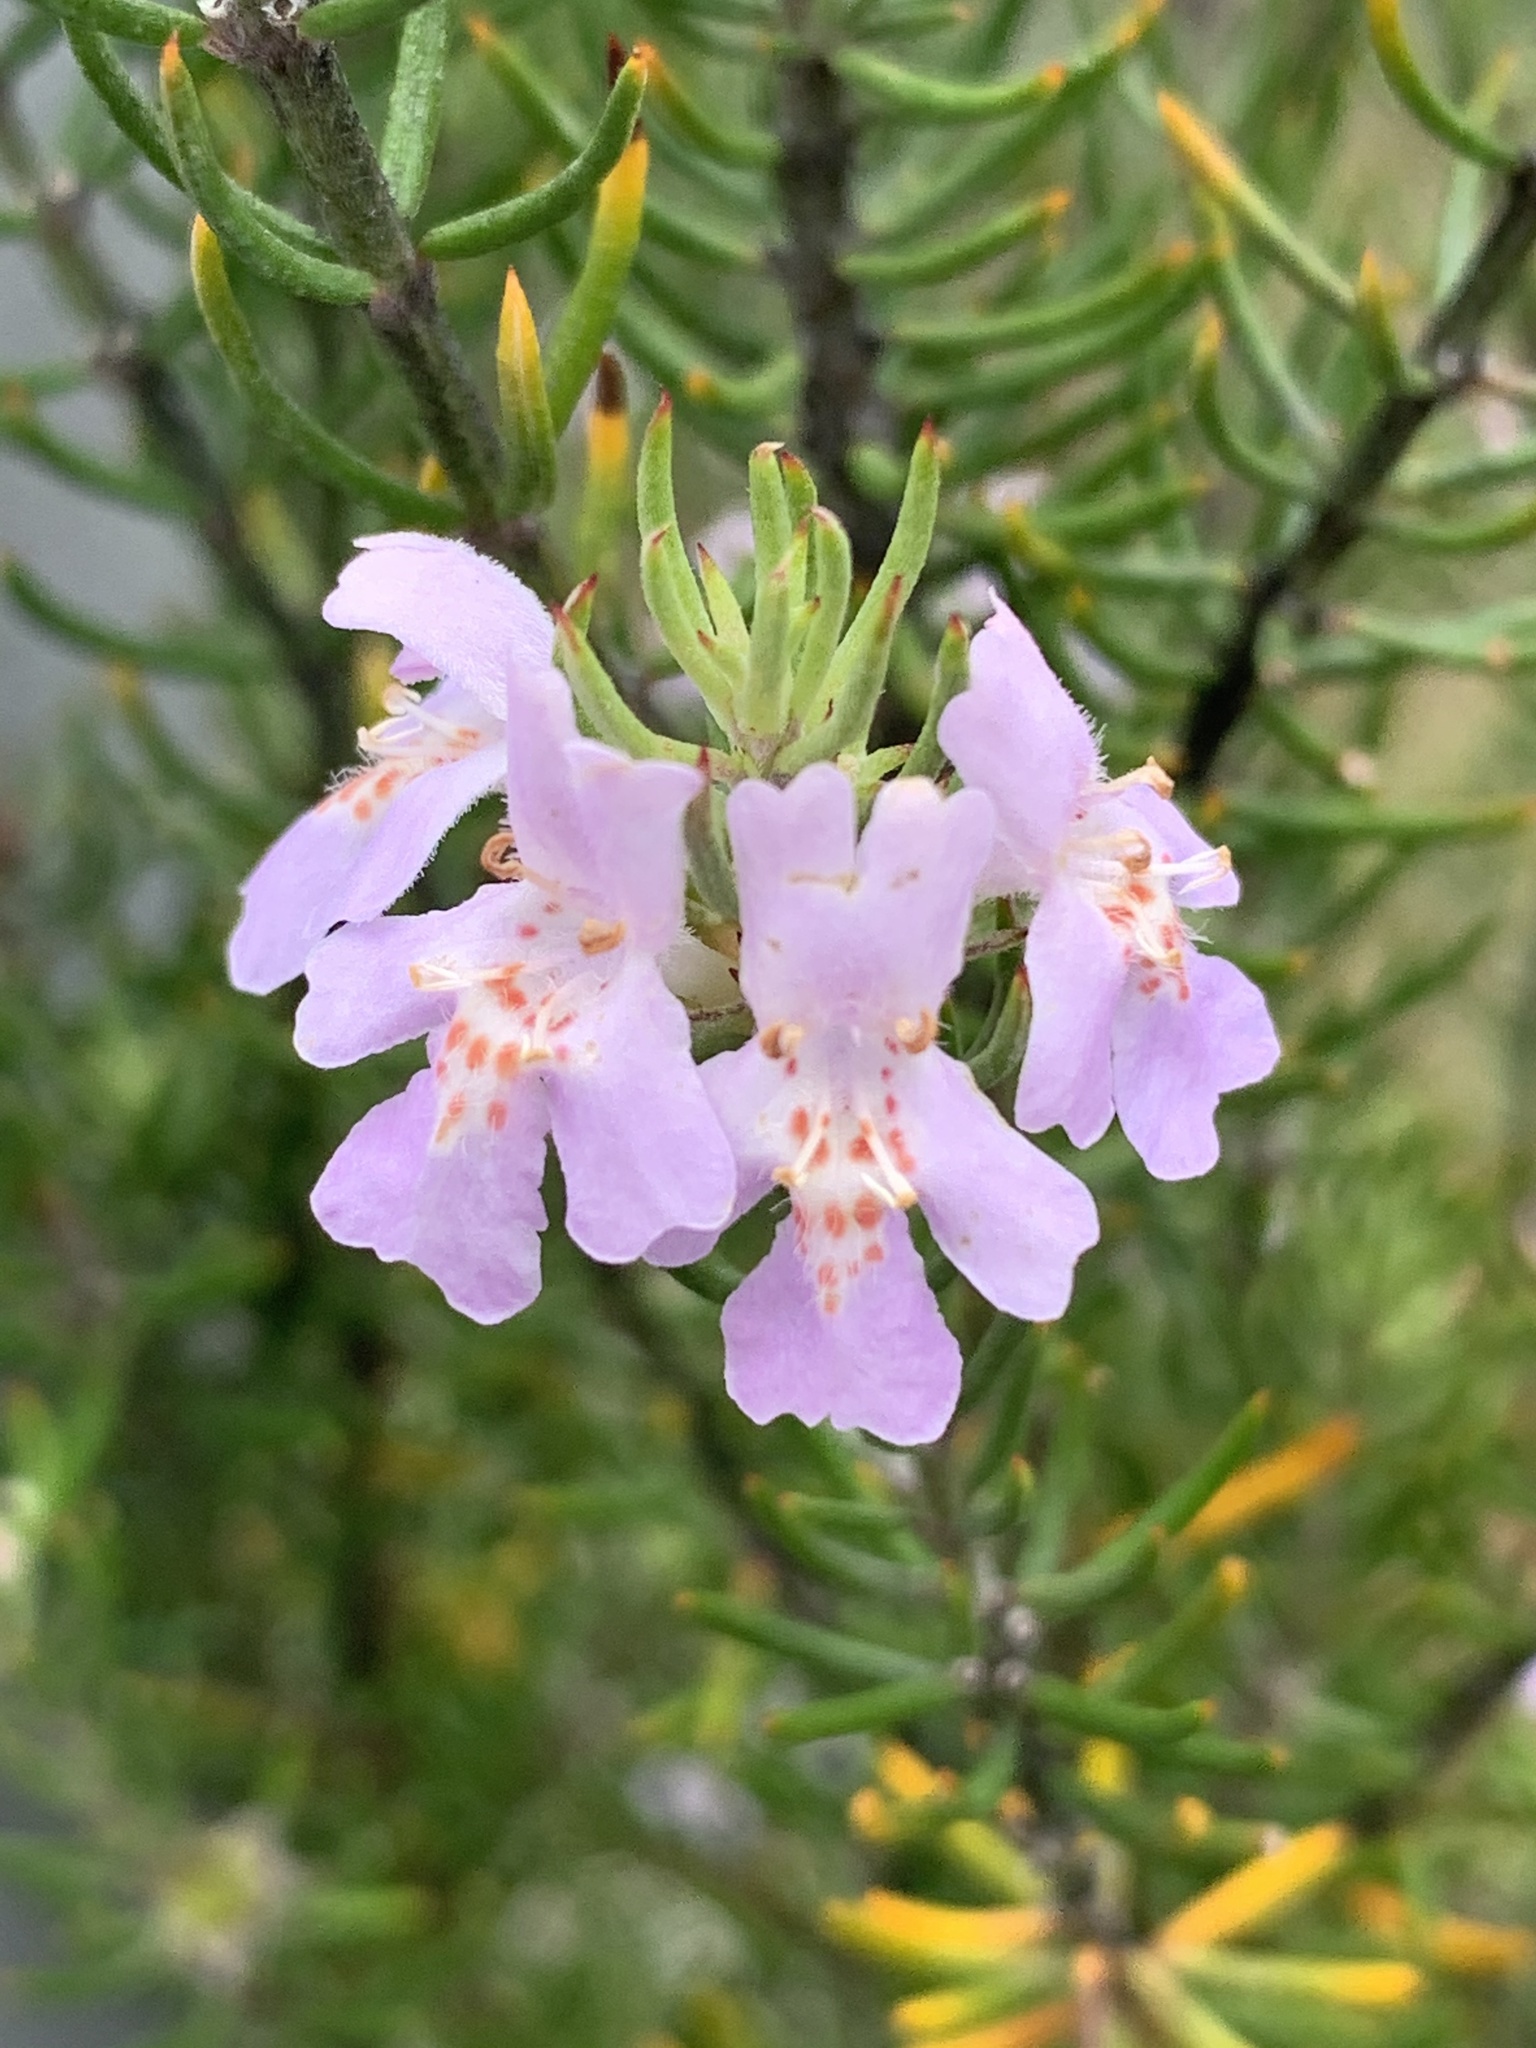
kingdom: Plantae
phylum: Tracheophyta
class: Magnoliopsida
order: Lamiales
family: Lamiaceae
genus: Westringia
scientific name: Westringia eremicola
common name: Slender western-rosemary
